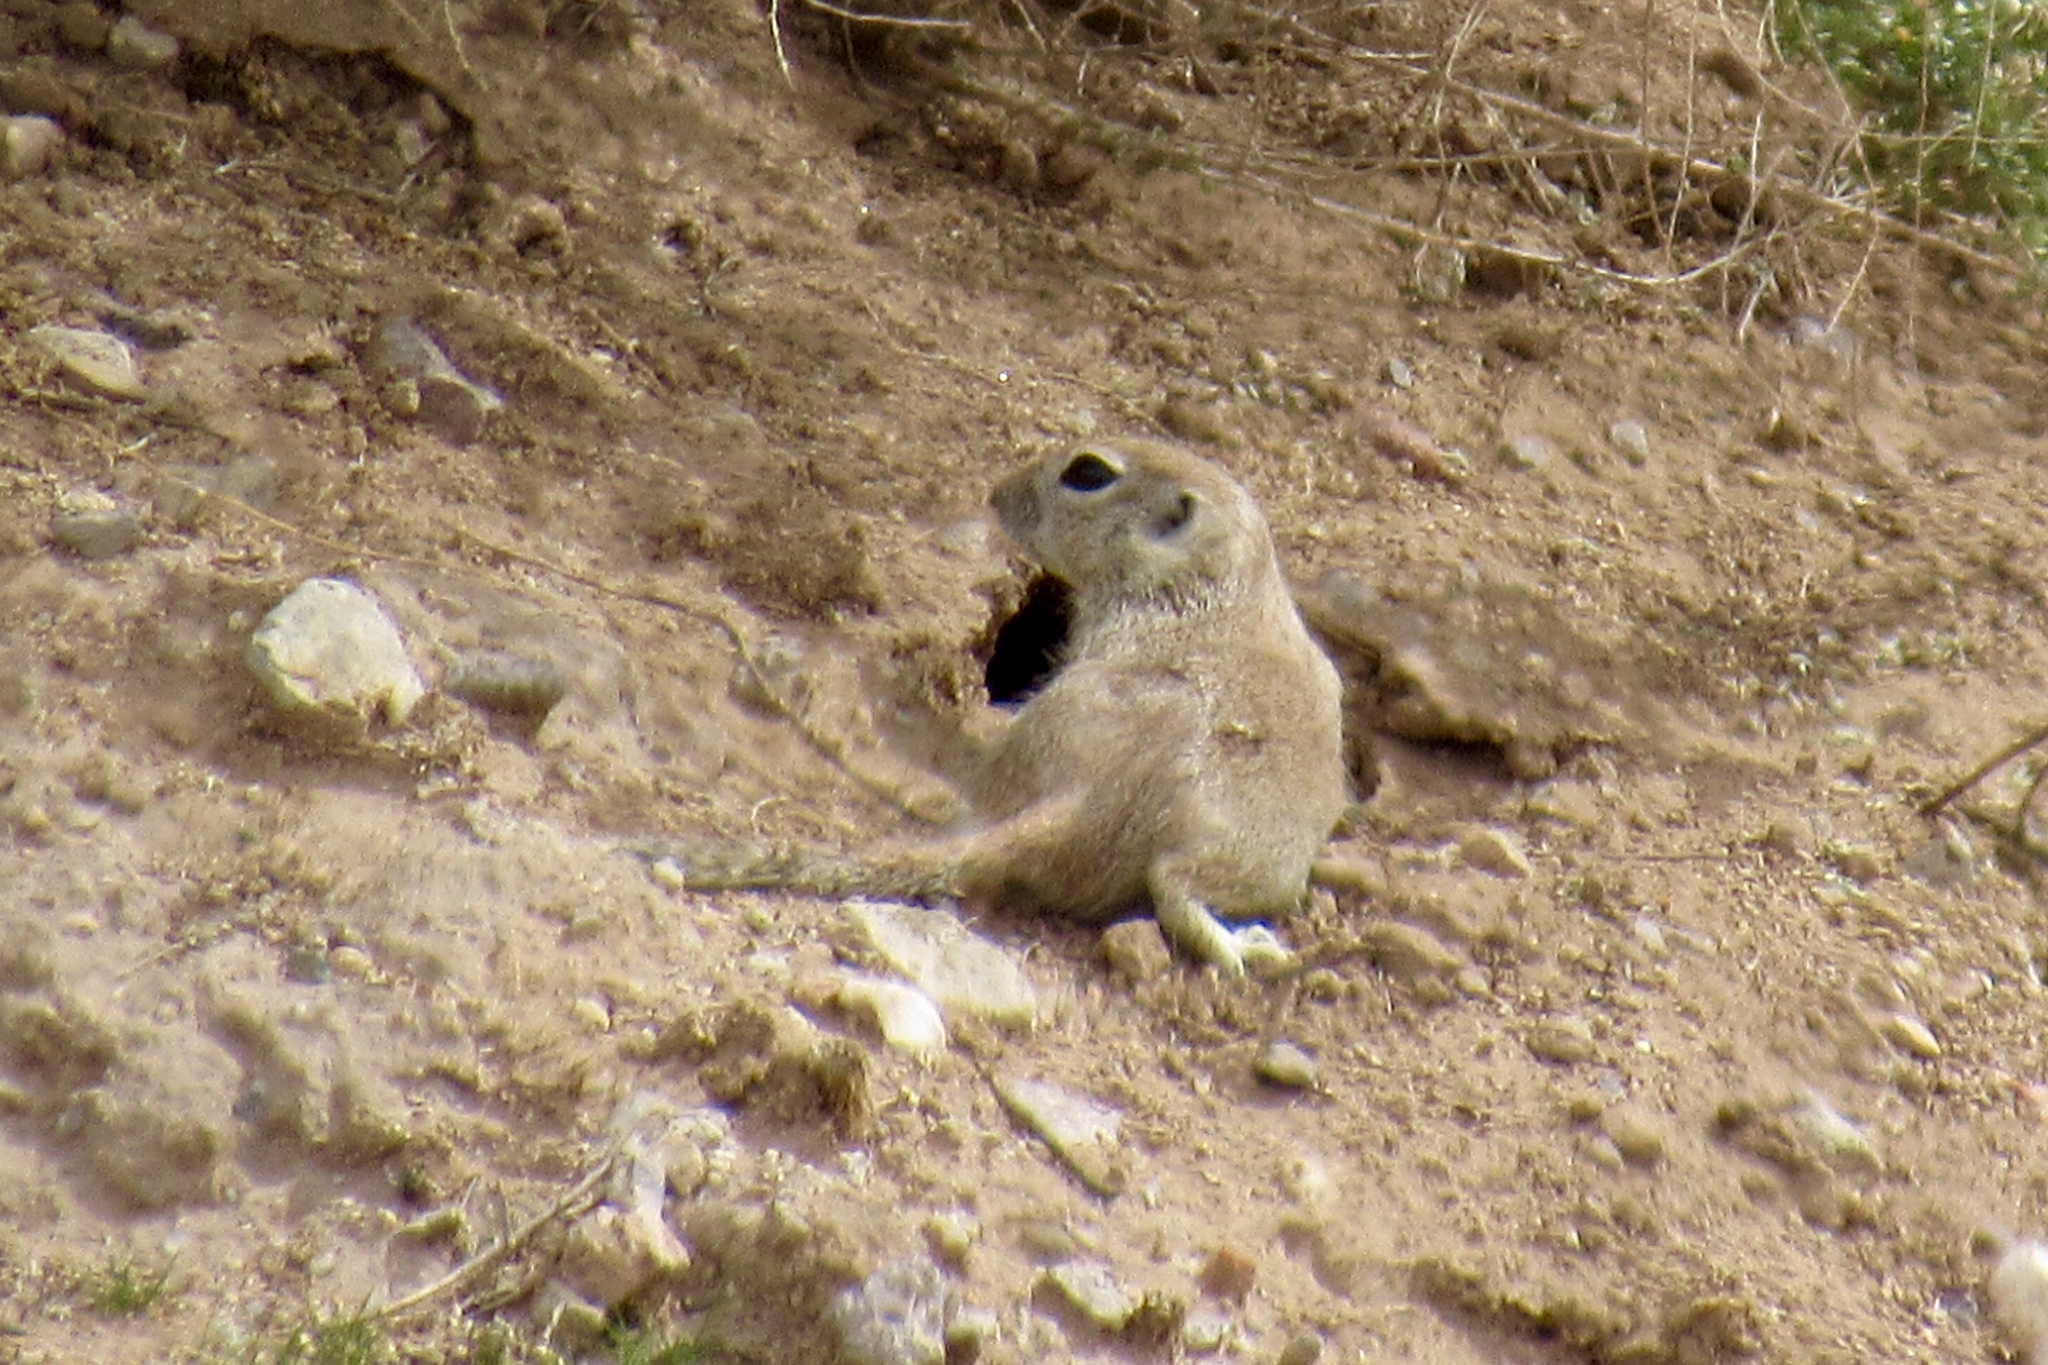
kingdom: Animalia
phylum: Chordata
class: Mammalia
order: Rodentia
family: Sciuridae
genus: Xerospermophilus
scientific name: Xerospermophilus tereticaudus
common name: Round-tailed ground squirrel
